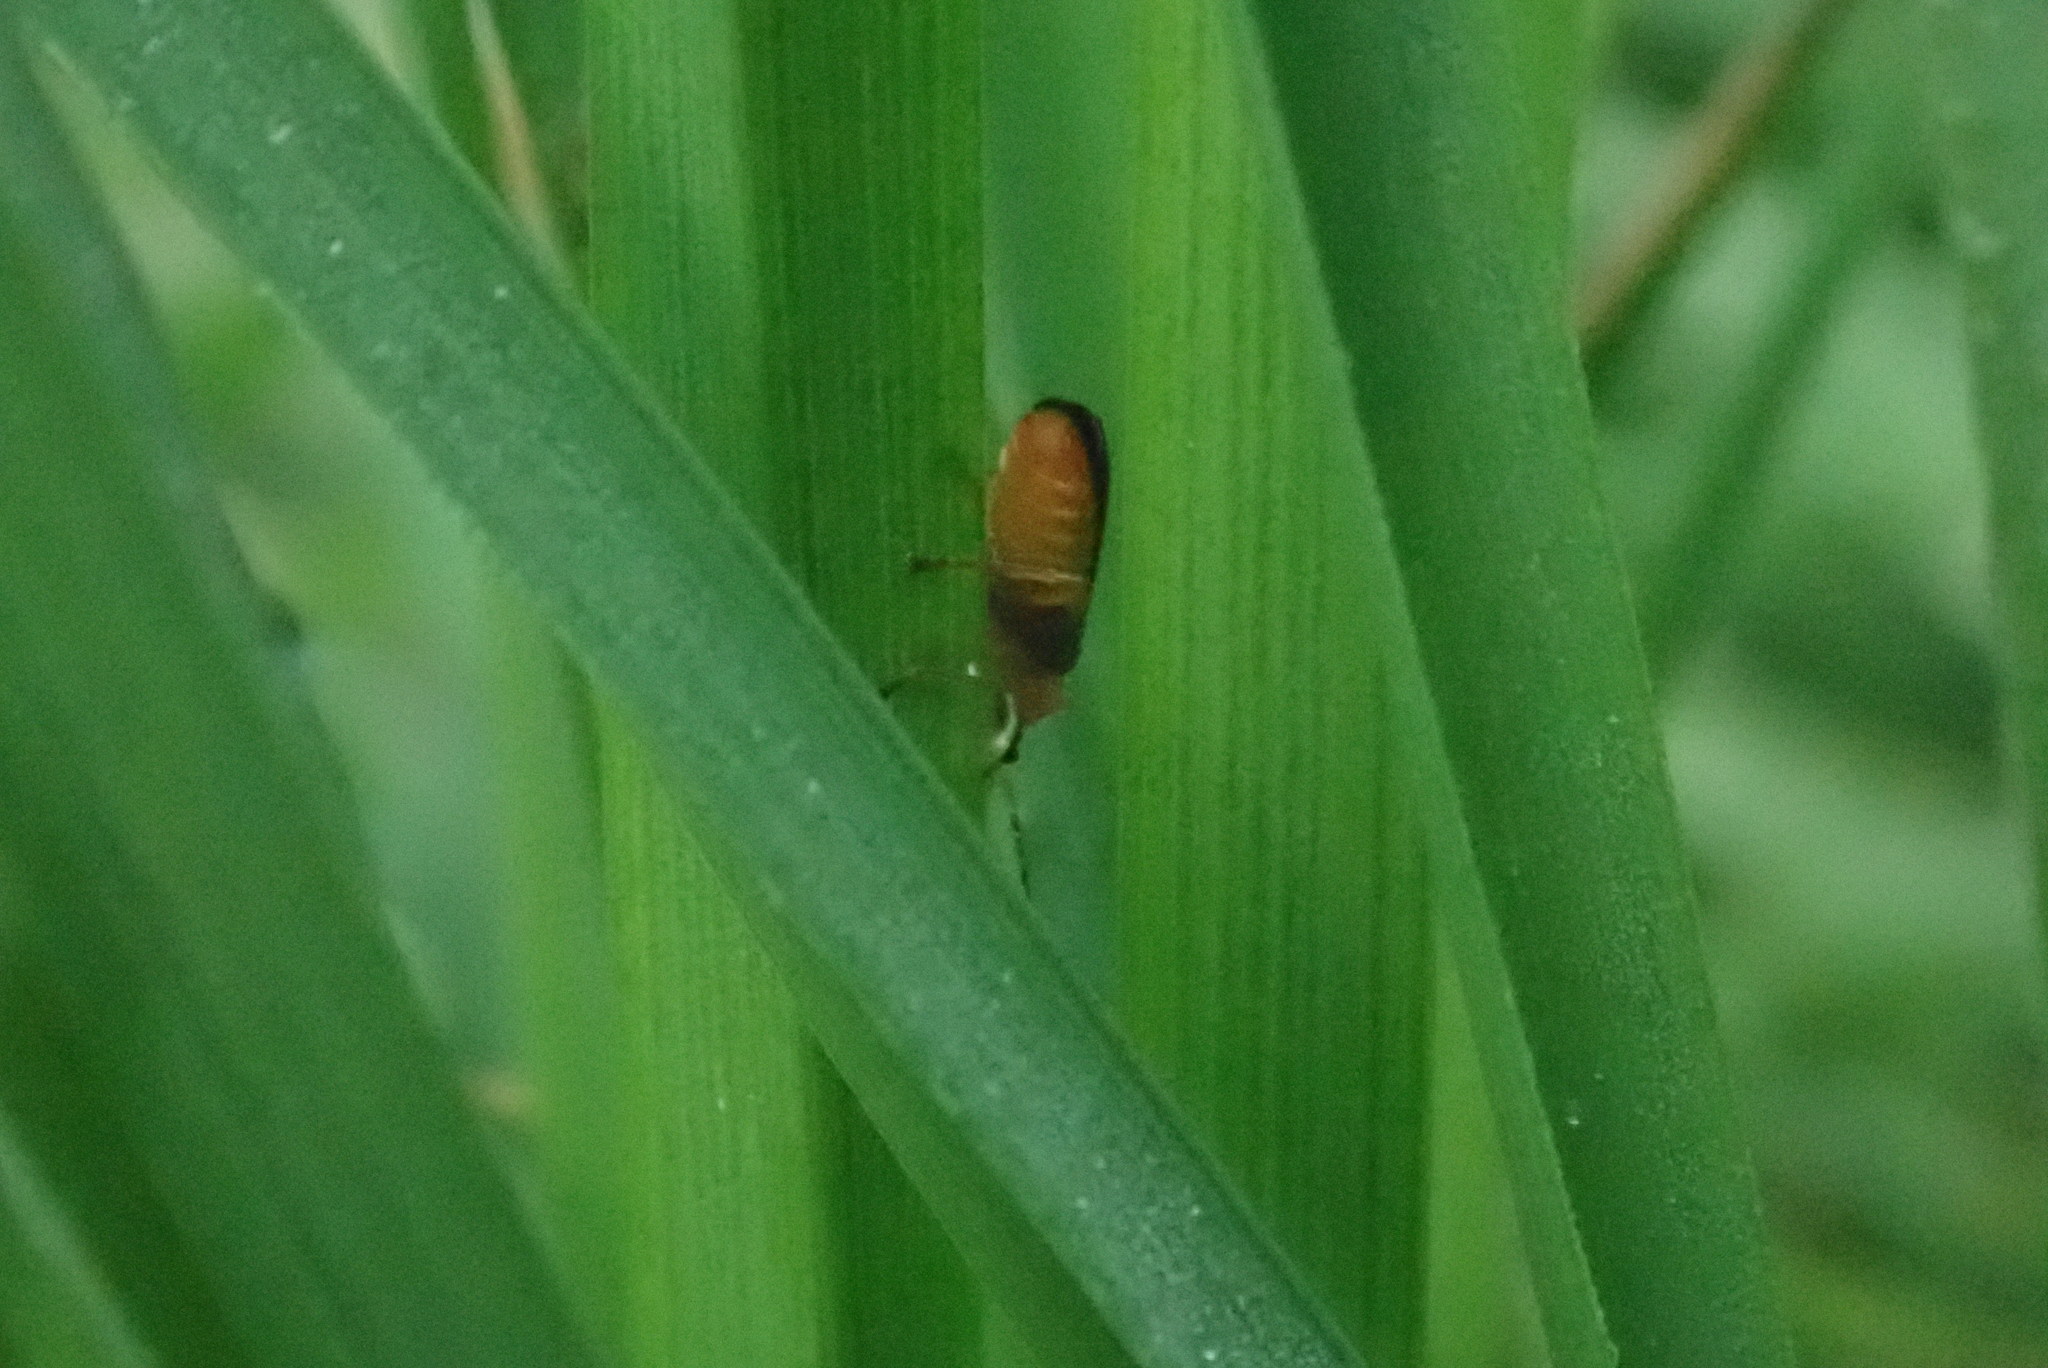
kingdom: Animalia
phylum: Arthropoda
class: Insecta
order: Coleoptera
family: Cantharidae
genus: Cantharis
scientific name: Cantharis nigra
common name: Cantharid beetle
